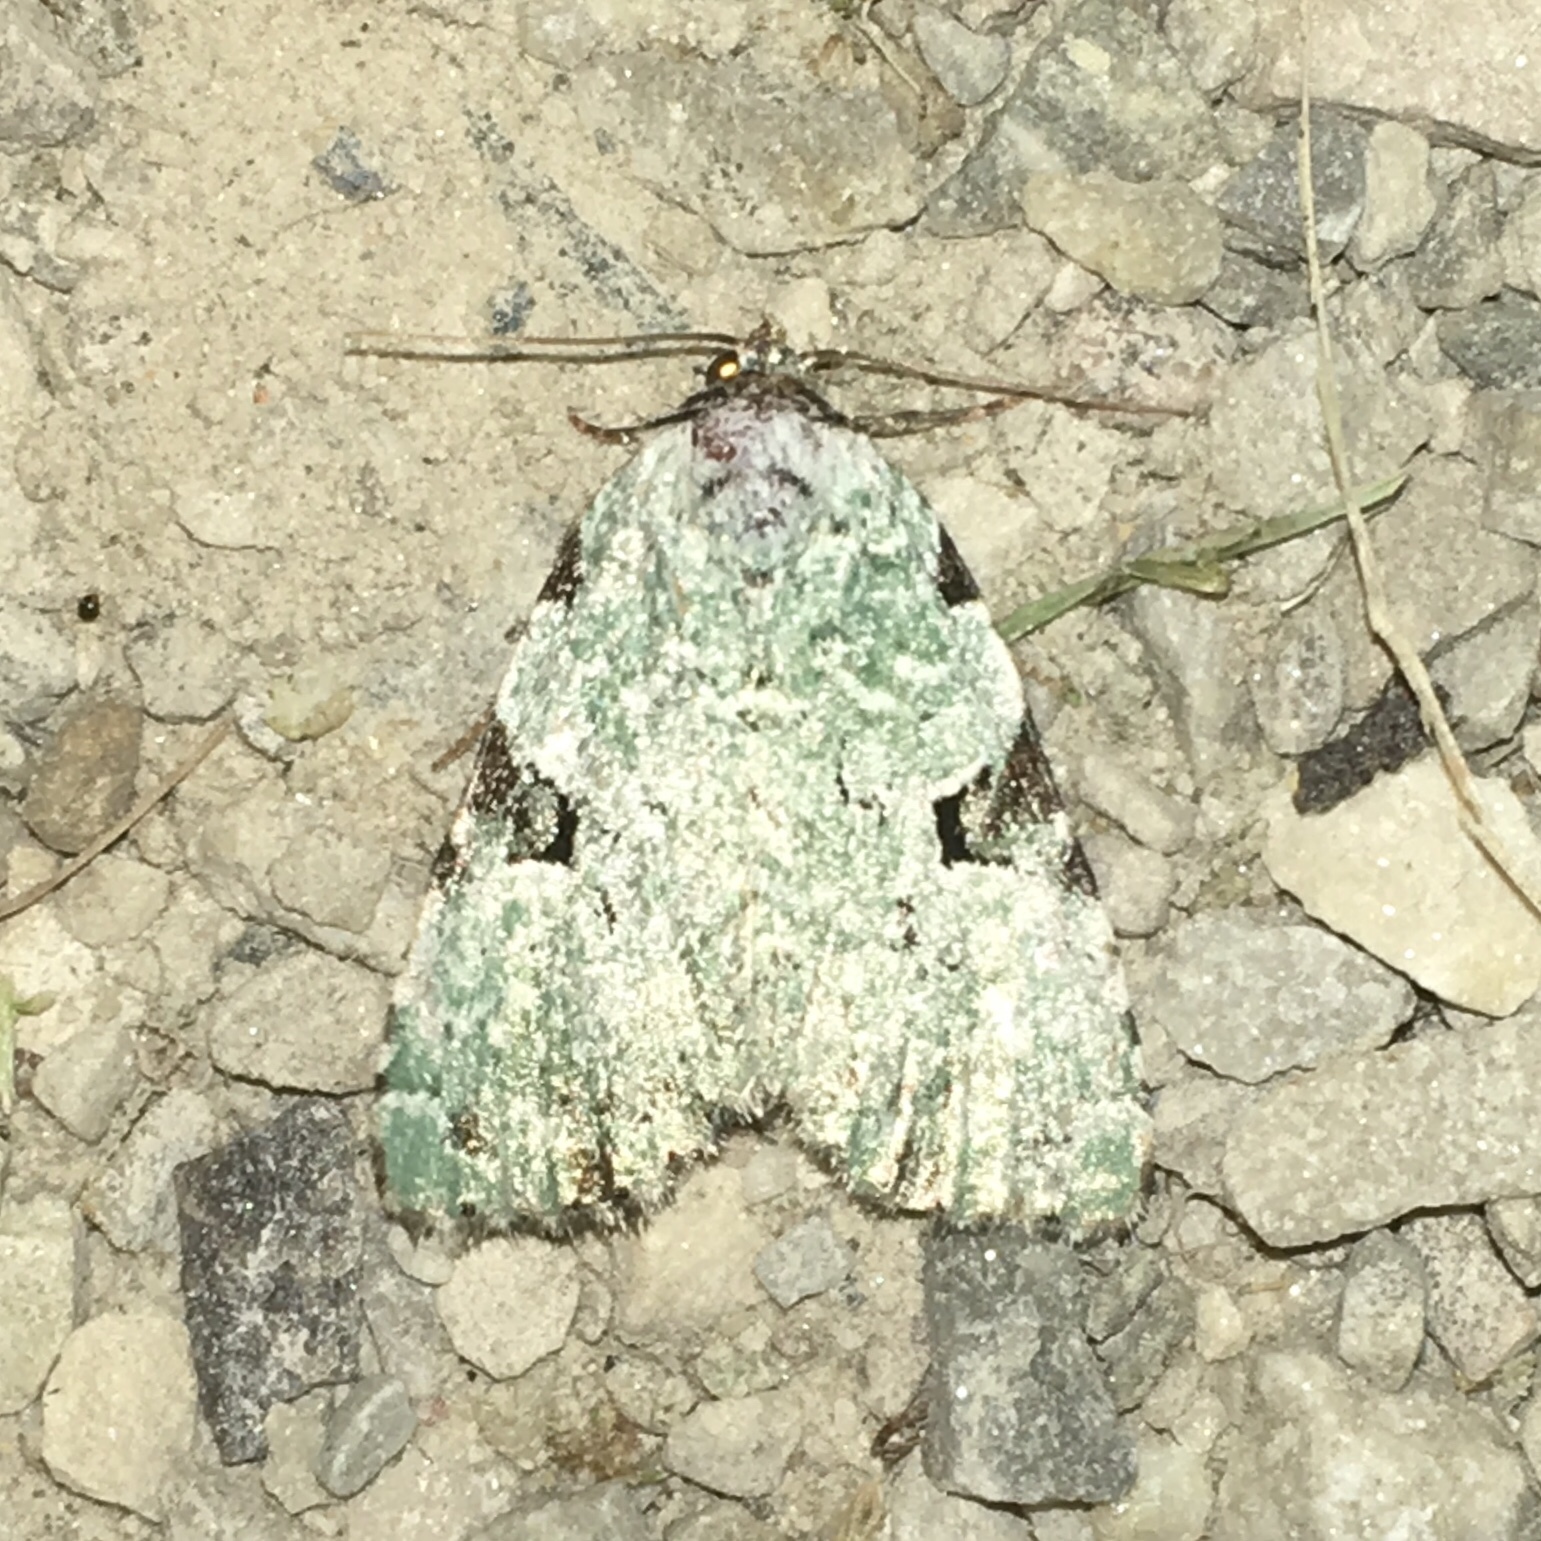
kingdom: Animalia
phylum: Arthropoda
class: Insecta
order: Lepidoptera
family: Noctuidae
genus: Leuconycta
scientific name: Leuconycta diphteroides
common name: Green leuconycta moth
